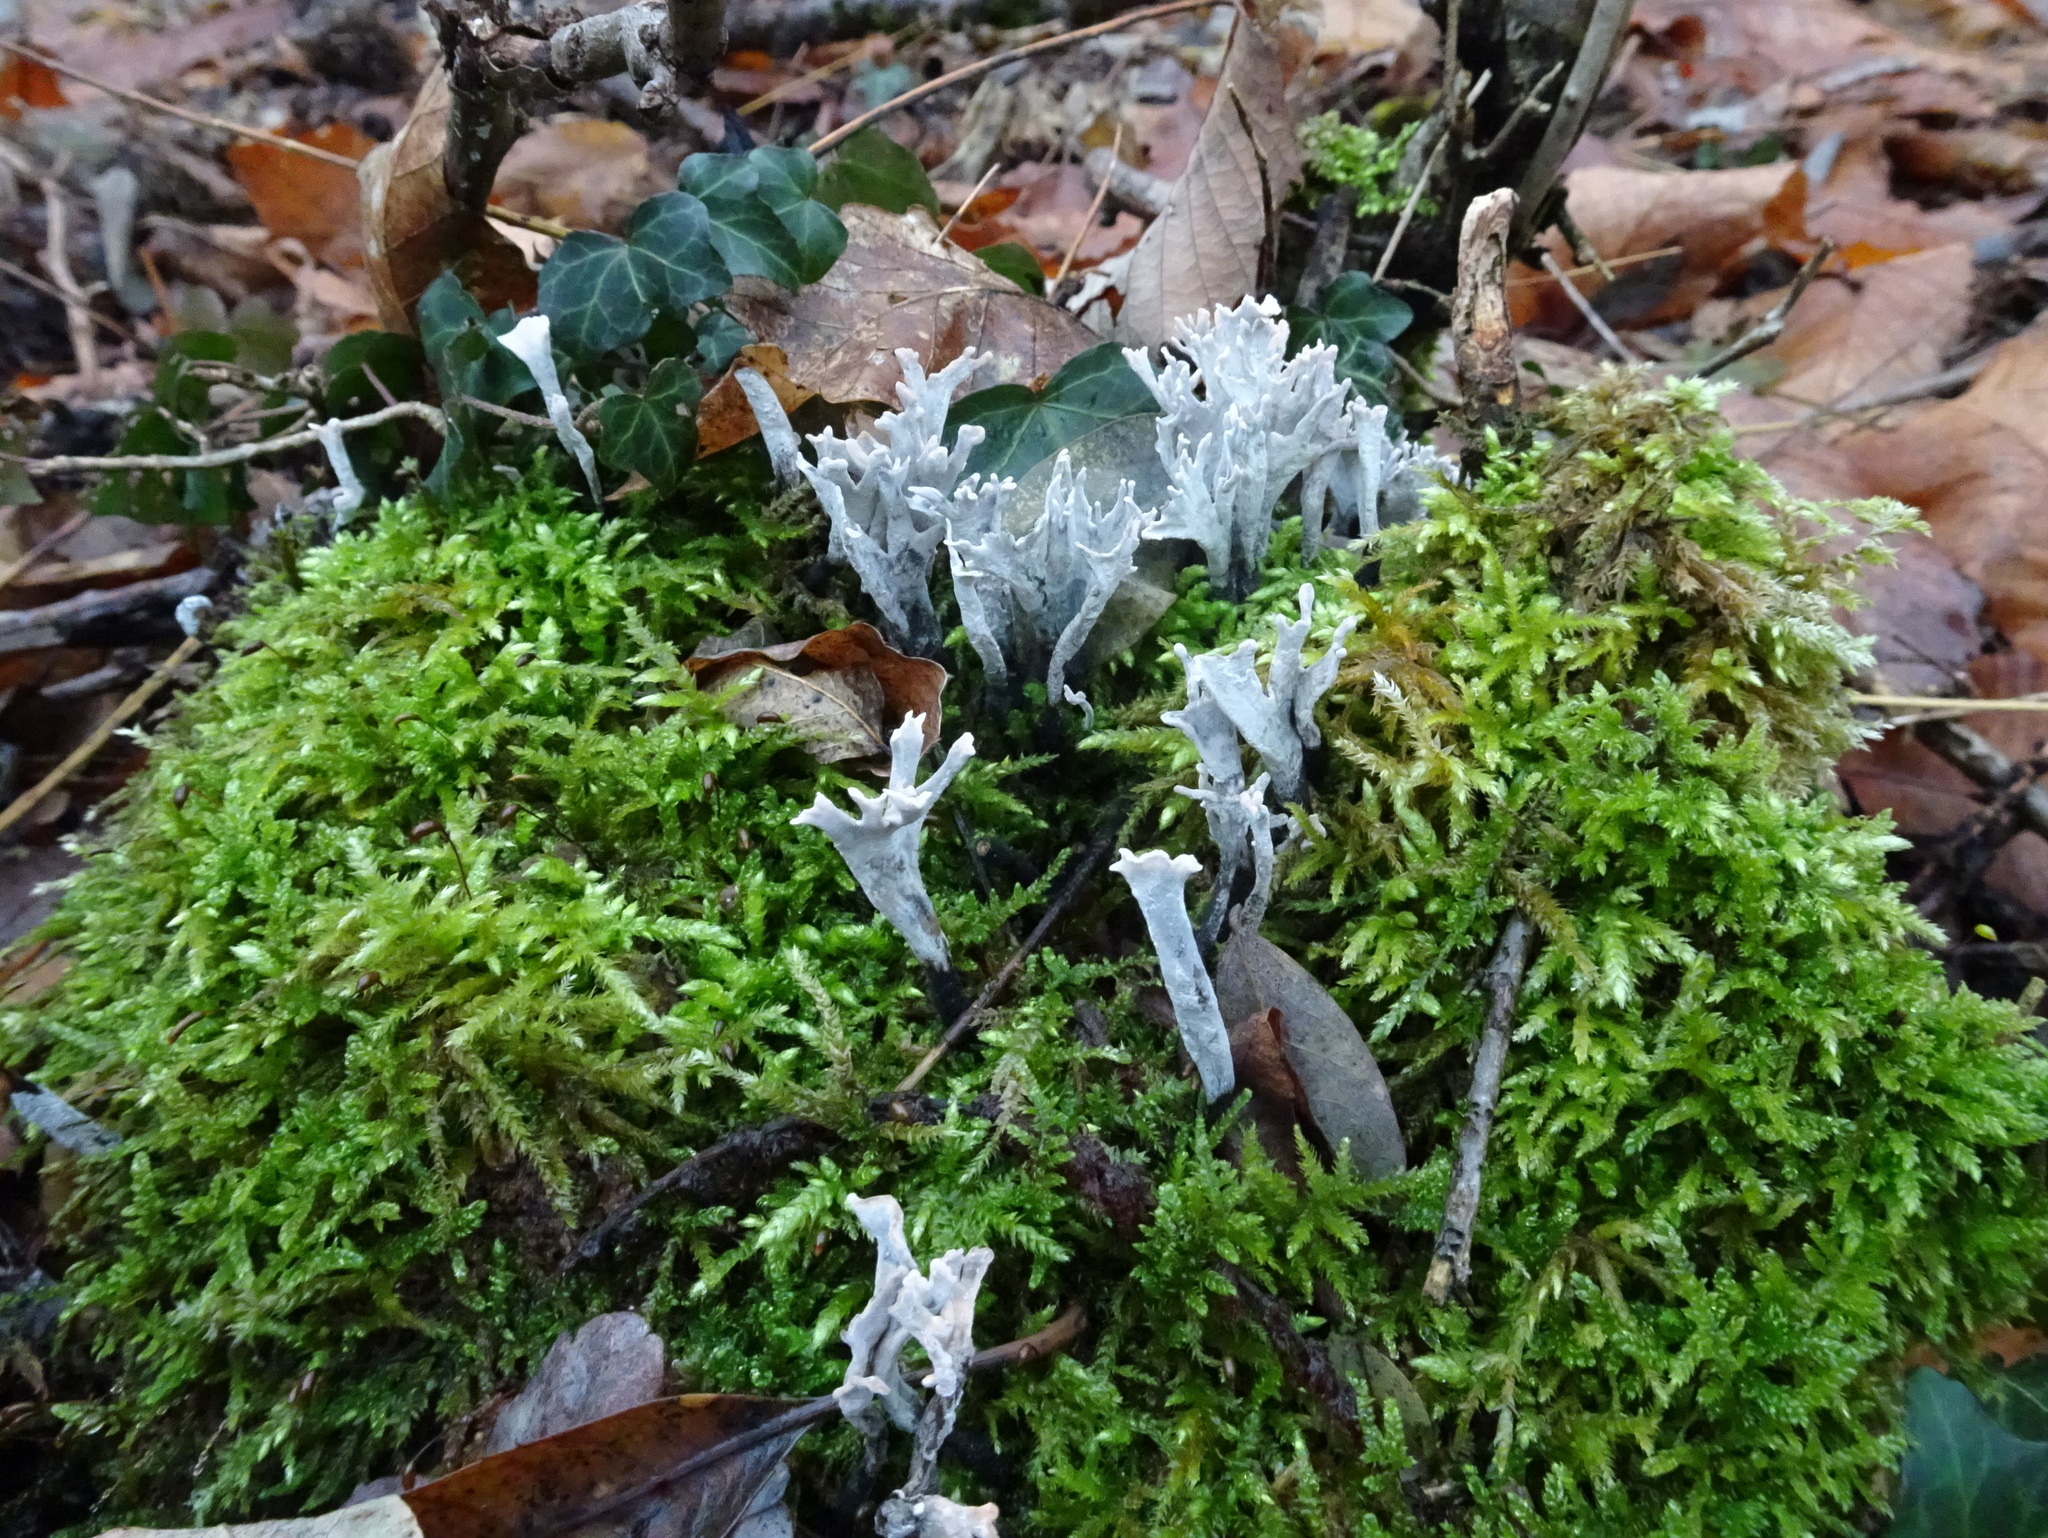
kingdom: Fungi
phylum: Ascomycota
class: Sordariomycetes
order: Xylariales
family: Xylariaceae
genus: Xylaria
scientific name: Xylaria hypoxylon
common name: Candle-snuff fungus
